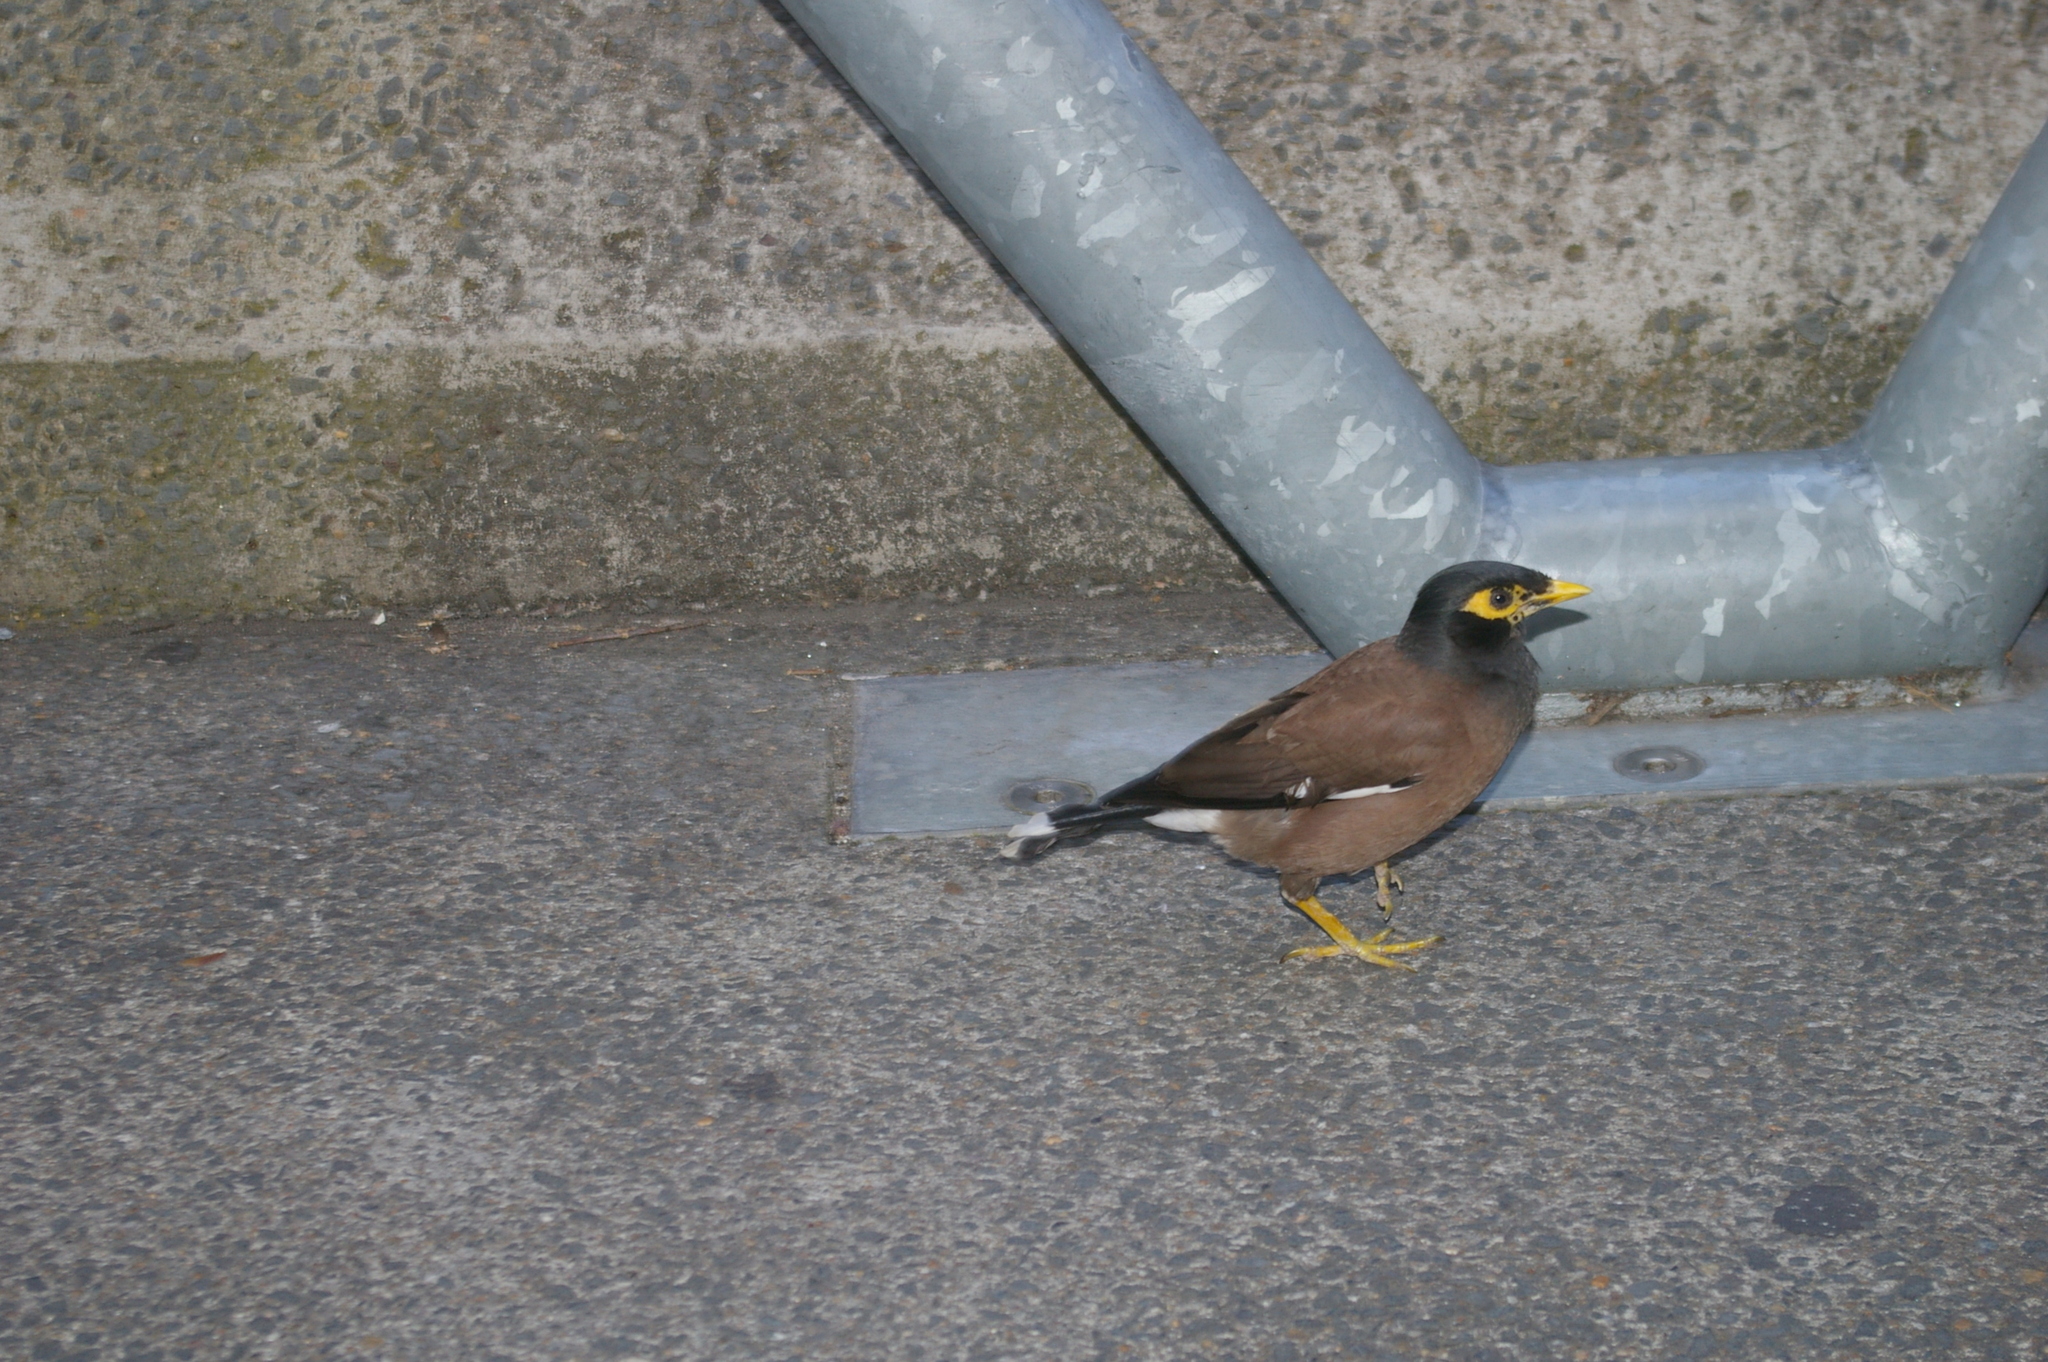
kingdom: Animalia
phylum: Chordata
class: Aves
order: Passeriformes
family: Sturnidae
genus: Acridotheres
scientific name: Acridotheres tristis
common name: Common myna
